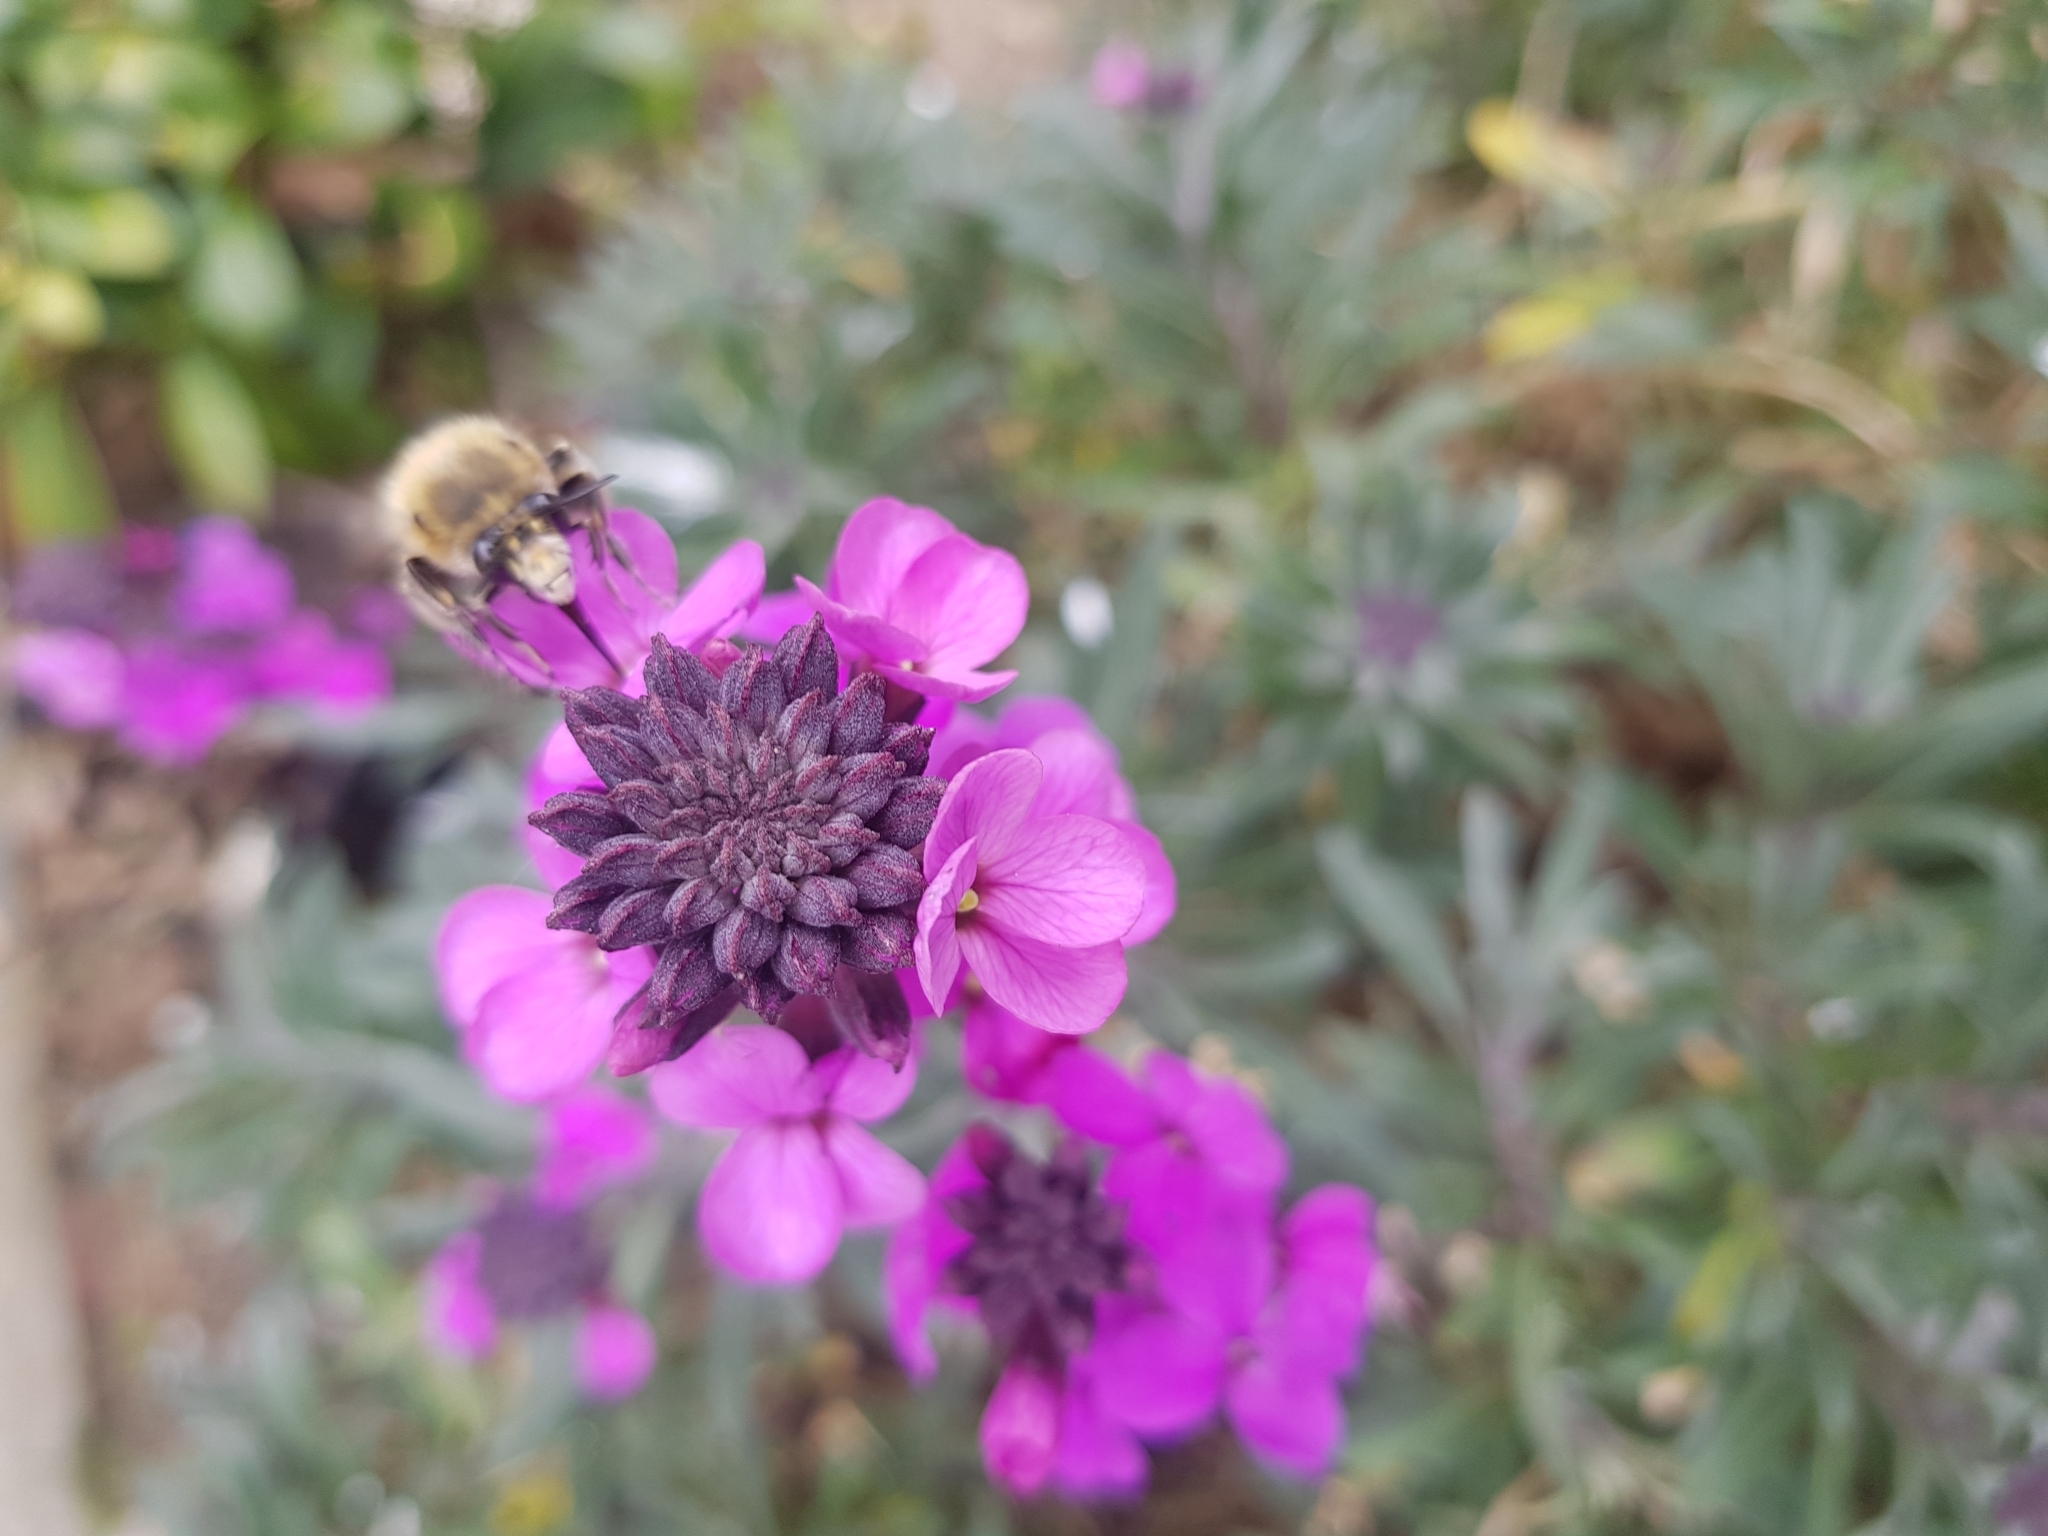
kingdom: Animalia
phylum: Arthropoda
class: Insecta
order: Hymenoptera
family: Apidae
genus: Anthophora
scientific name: Anthophora plumipes
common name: Hairy-footed flower bee
